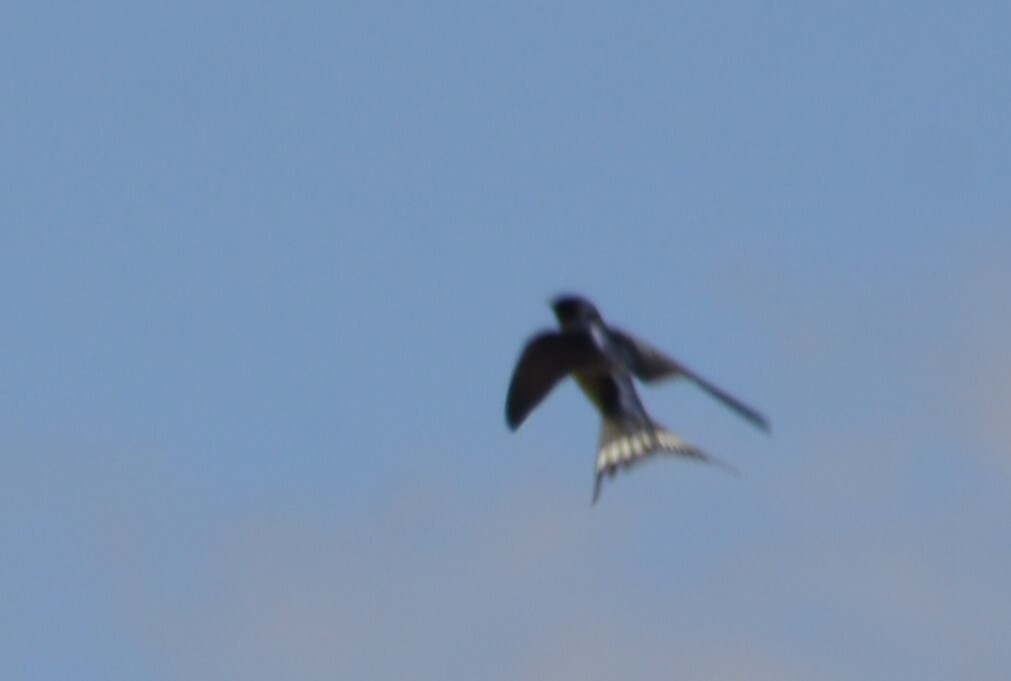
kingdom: Animalia
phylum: Chordata
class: Aves
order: Passeriformes
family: Hirundinidae
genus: Hirundo
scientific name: Hirundo rustica
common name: Barn swallow
